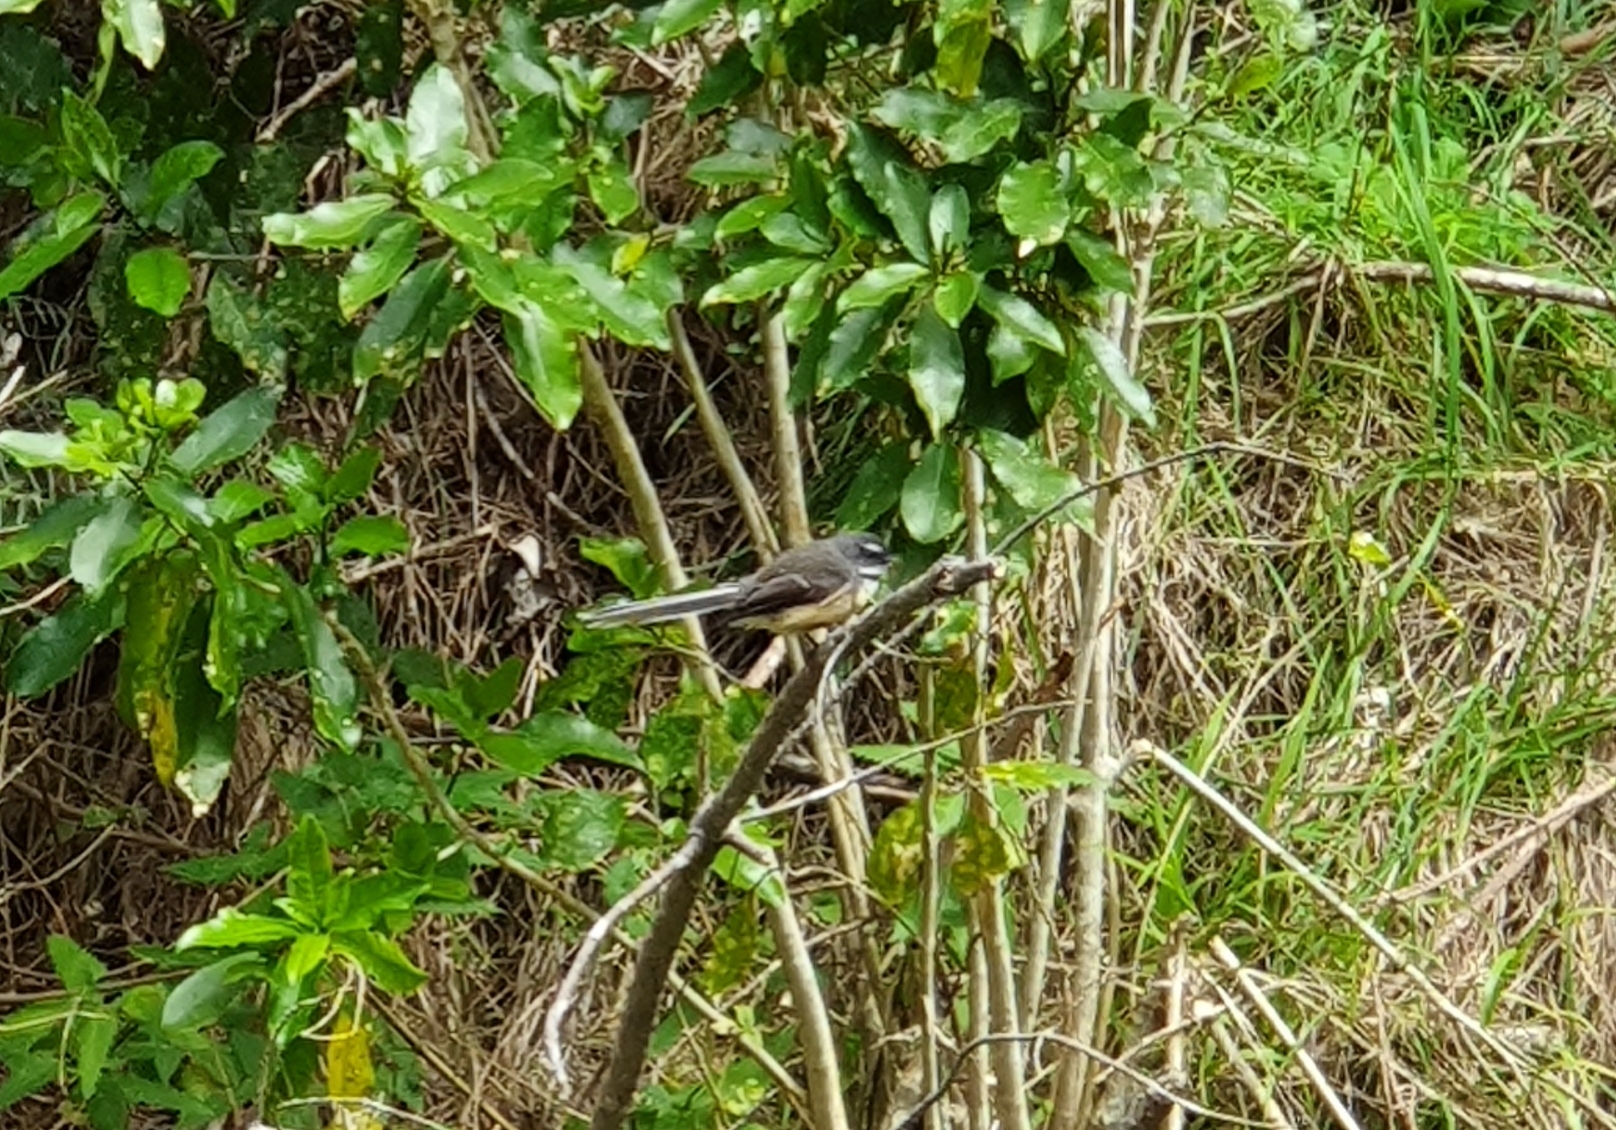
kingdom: Animalia
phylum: Chordata
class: Aves
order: Passeriformes
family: Rhipiduridae
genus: Rhipidura
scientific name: Rhipidura fuliginosa
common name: New zealand fantail
